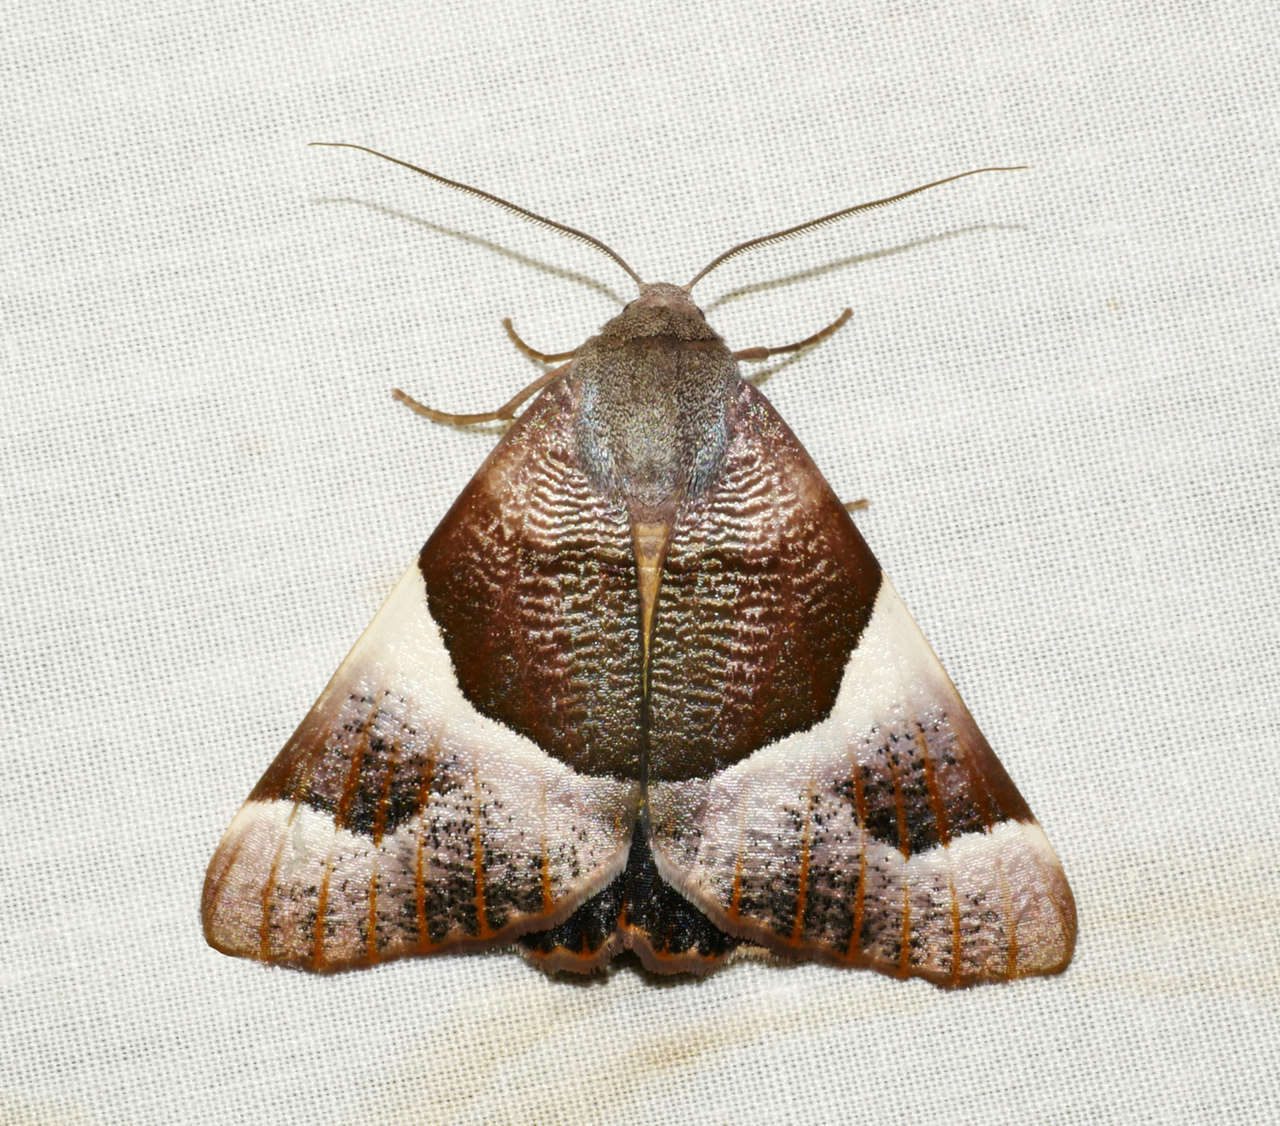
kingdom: Animalia
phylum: Arthropoda
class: Insecta
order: Lepidoptera
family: Geometridae
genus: Niceteria
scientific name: Niceteria macrocosma
